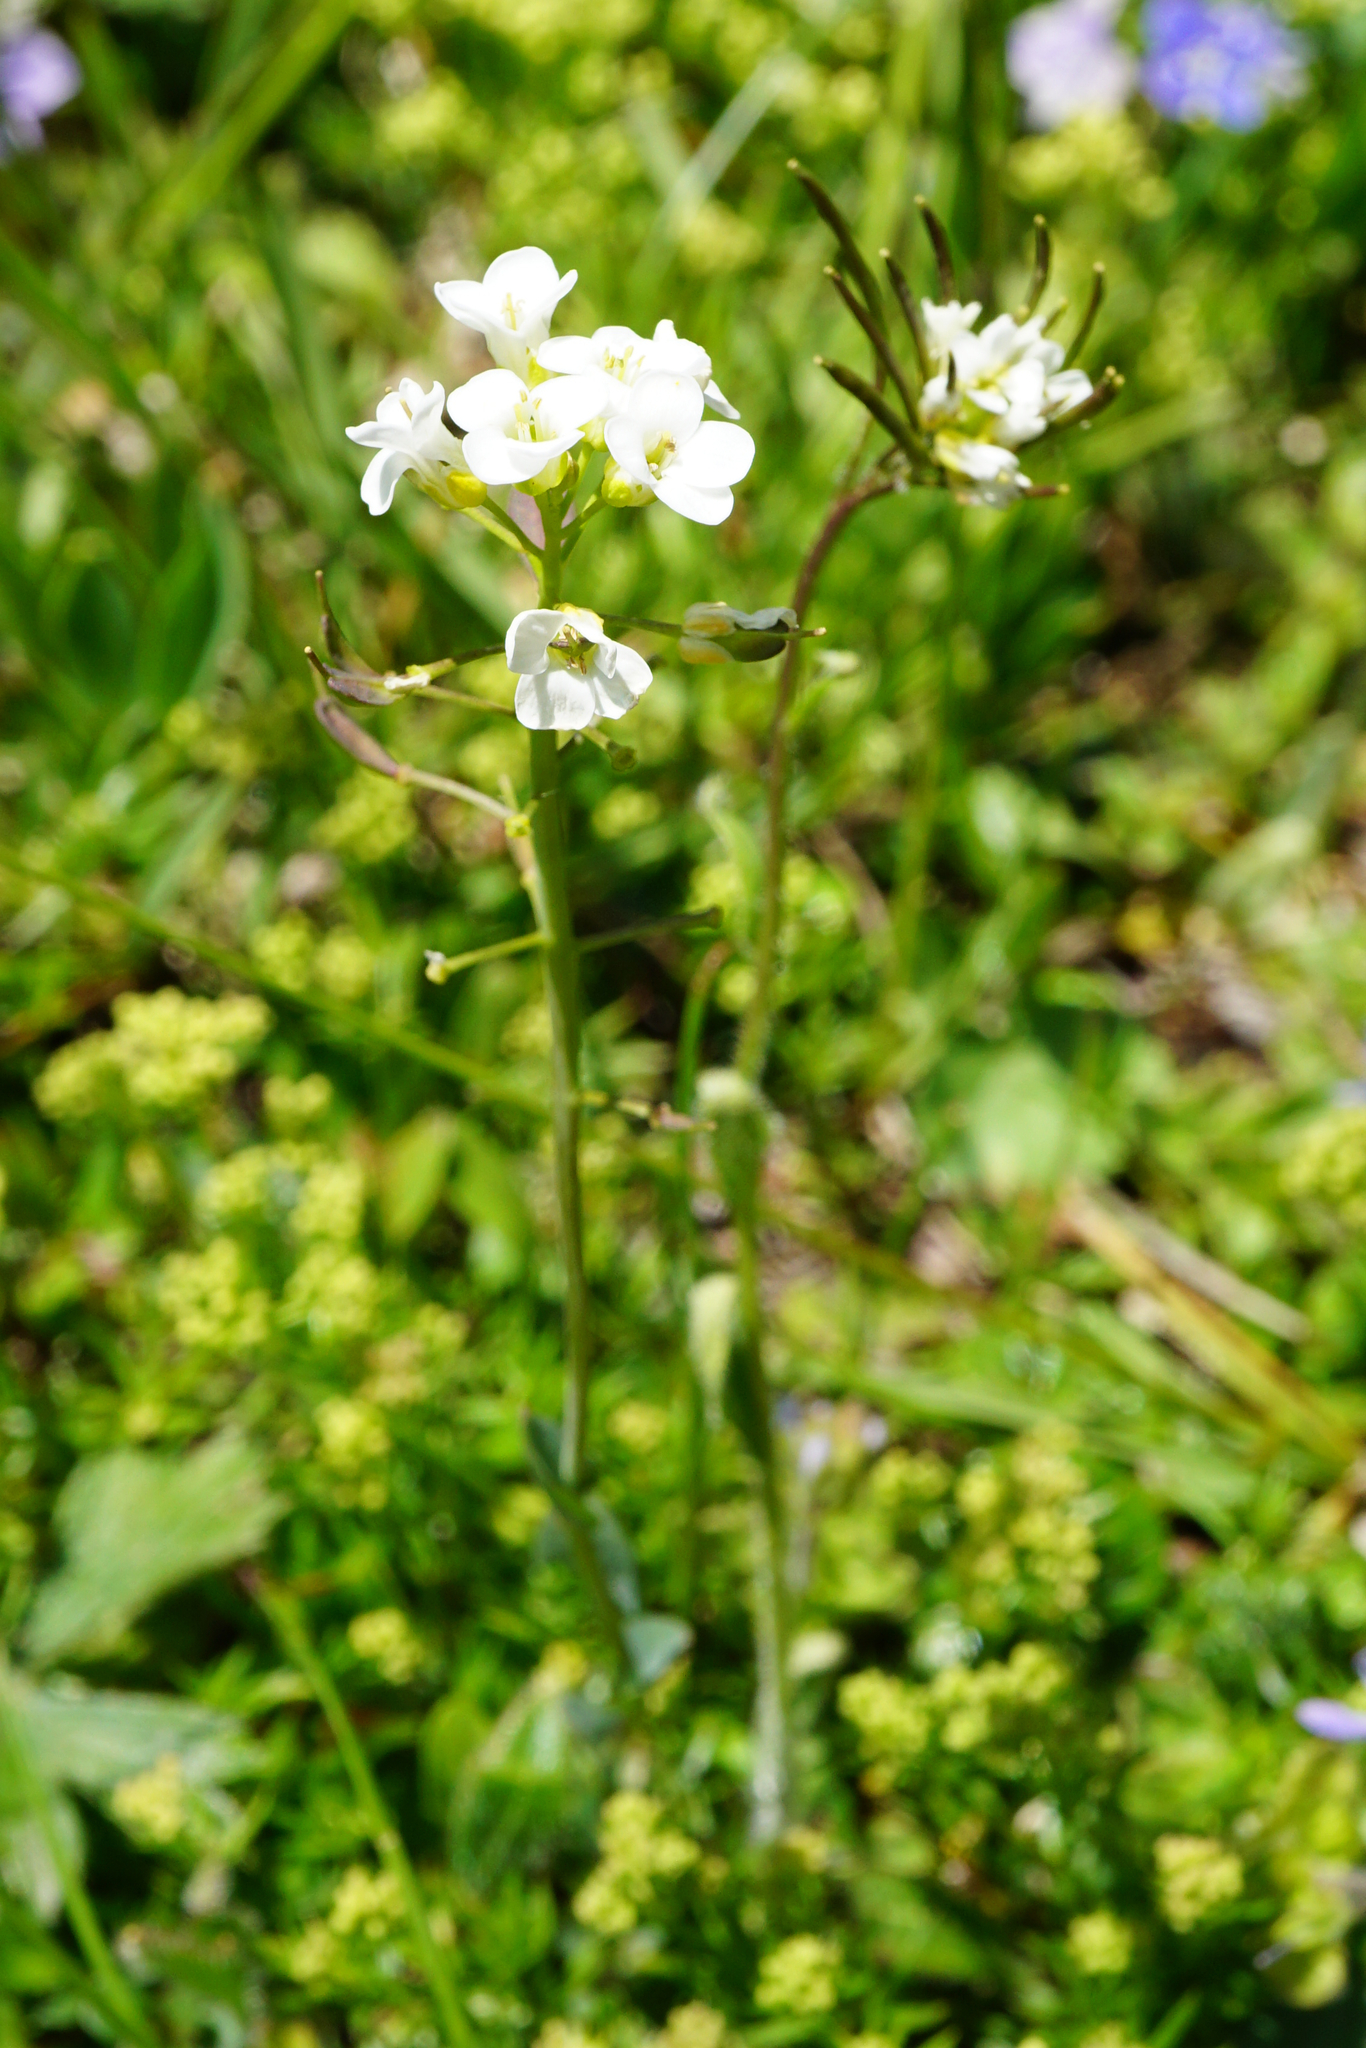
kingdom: Plantae
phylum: Tracheophyta
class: Magnoliopsida
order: Brassicales
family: Brassicaceae
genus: Noccaea
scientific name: Noccaea alpestris
